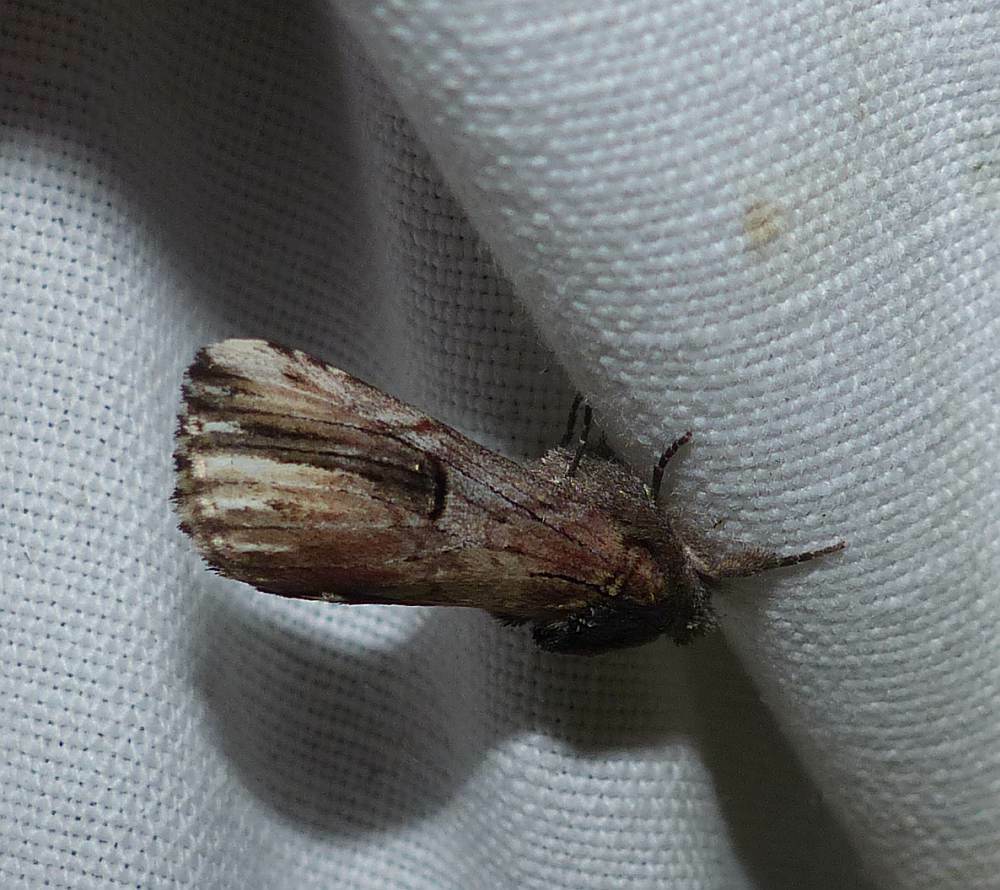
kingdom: Animalia
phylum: Arthropoda
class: Insecta
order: Lepidoptera
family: Notodontidae
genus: Schizura
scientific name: Schizura badia
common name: Chestnut schizura
